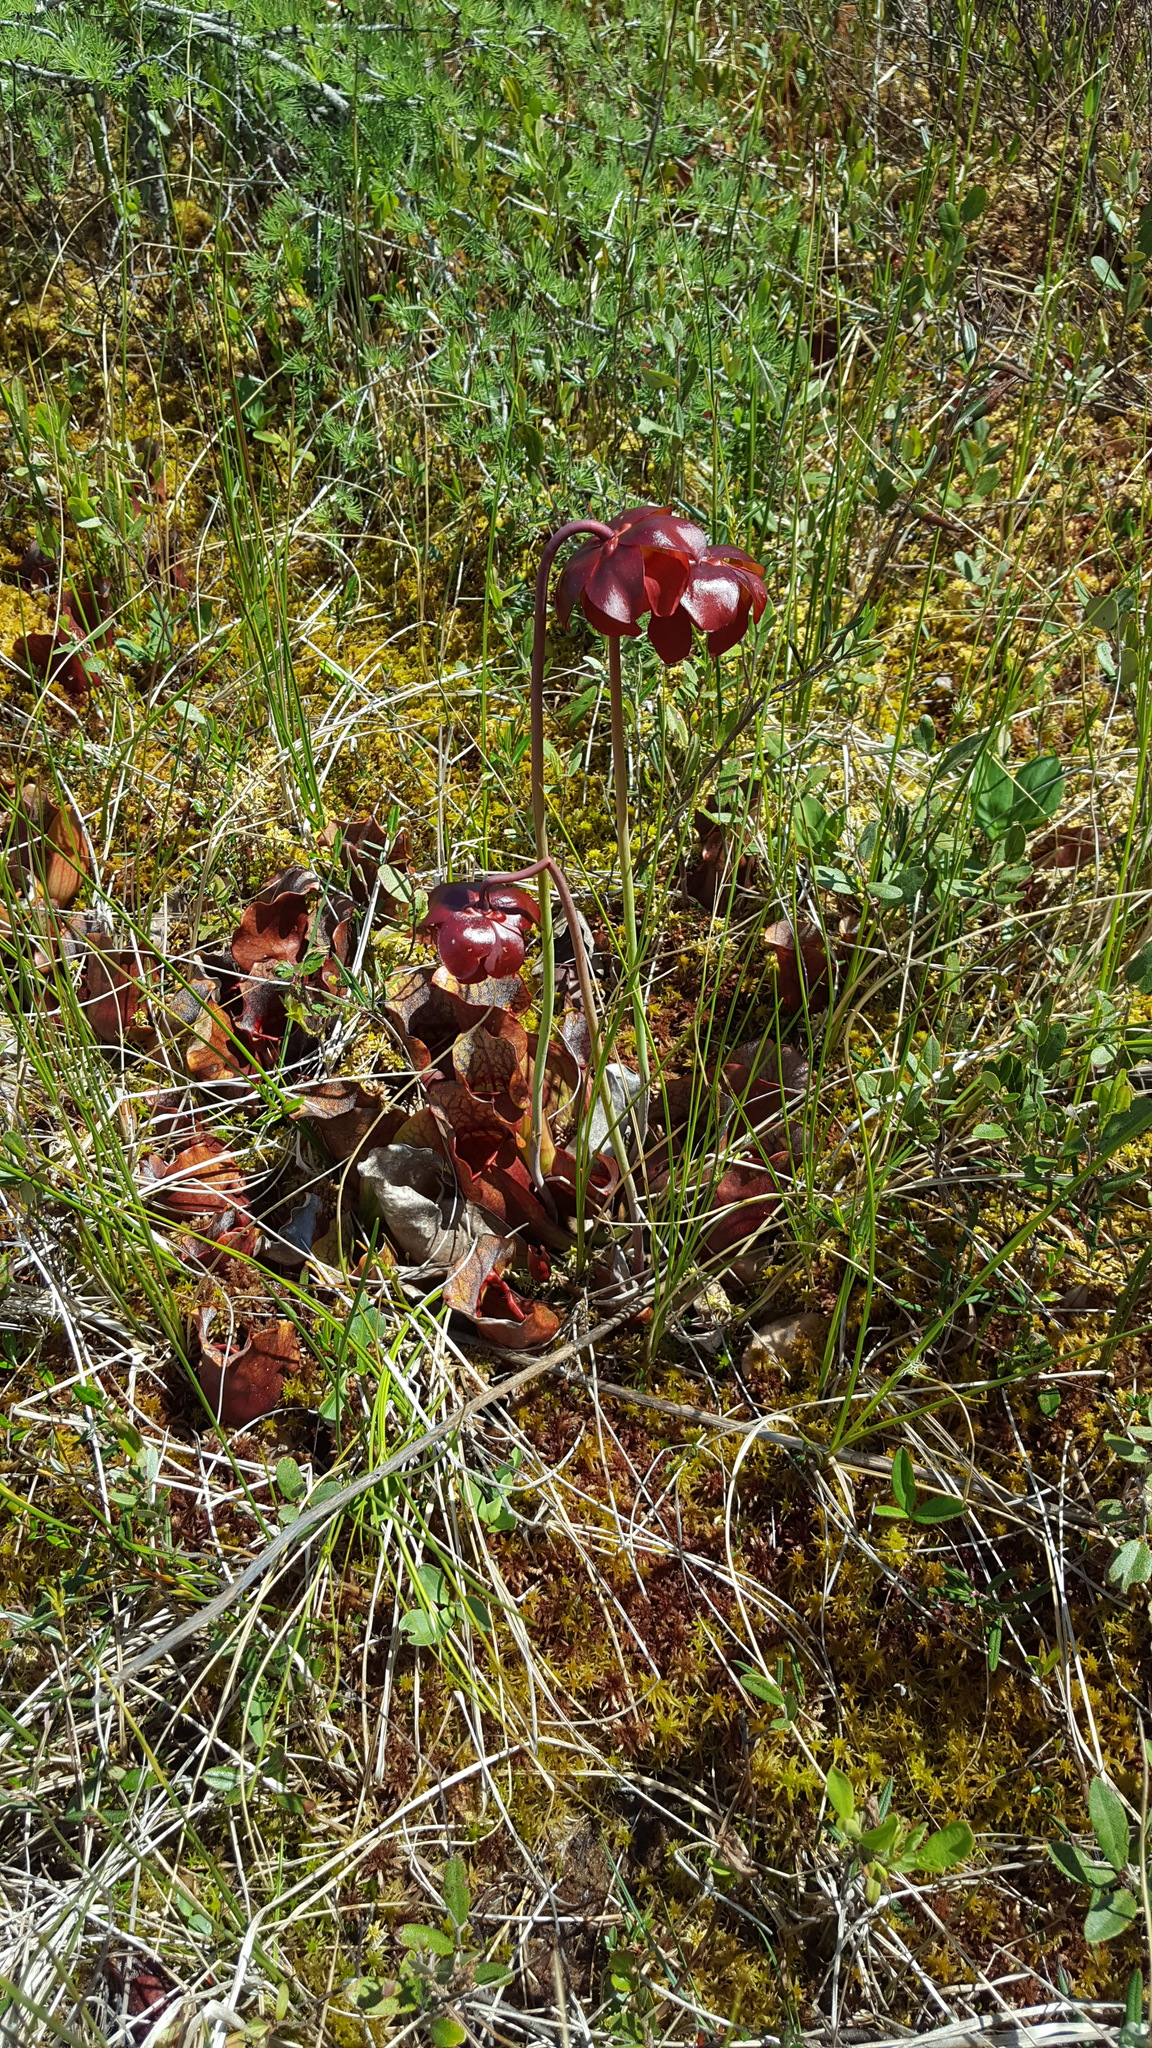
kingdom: Plantae
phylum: Tracheophyta
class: Magnoliopsida
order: Ericales
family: Sarraceniaceae
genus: Sarracenia
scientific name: Sarracenia purpurea
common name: Pitcherplant
